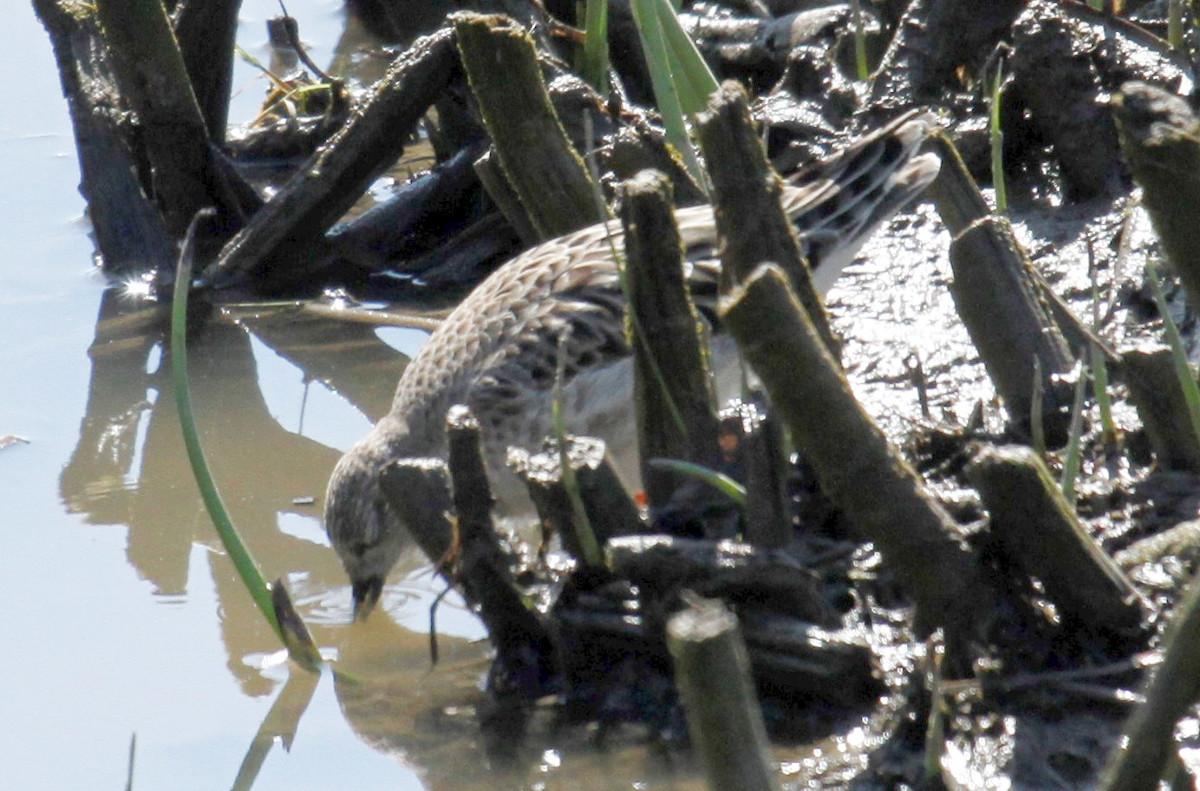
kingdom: Animalia
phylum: Chordata
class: Aves
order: Charadriiformes
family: Scolopacidae
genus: Calidris
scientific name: Calidris pugnax
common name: Ruff
